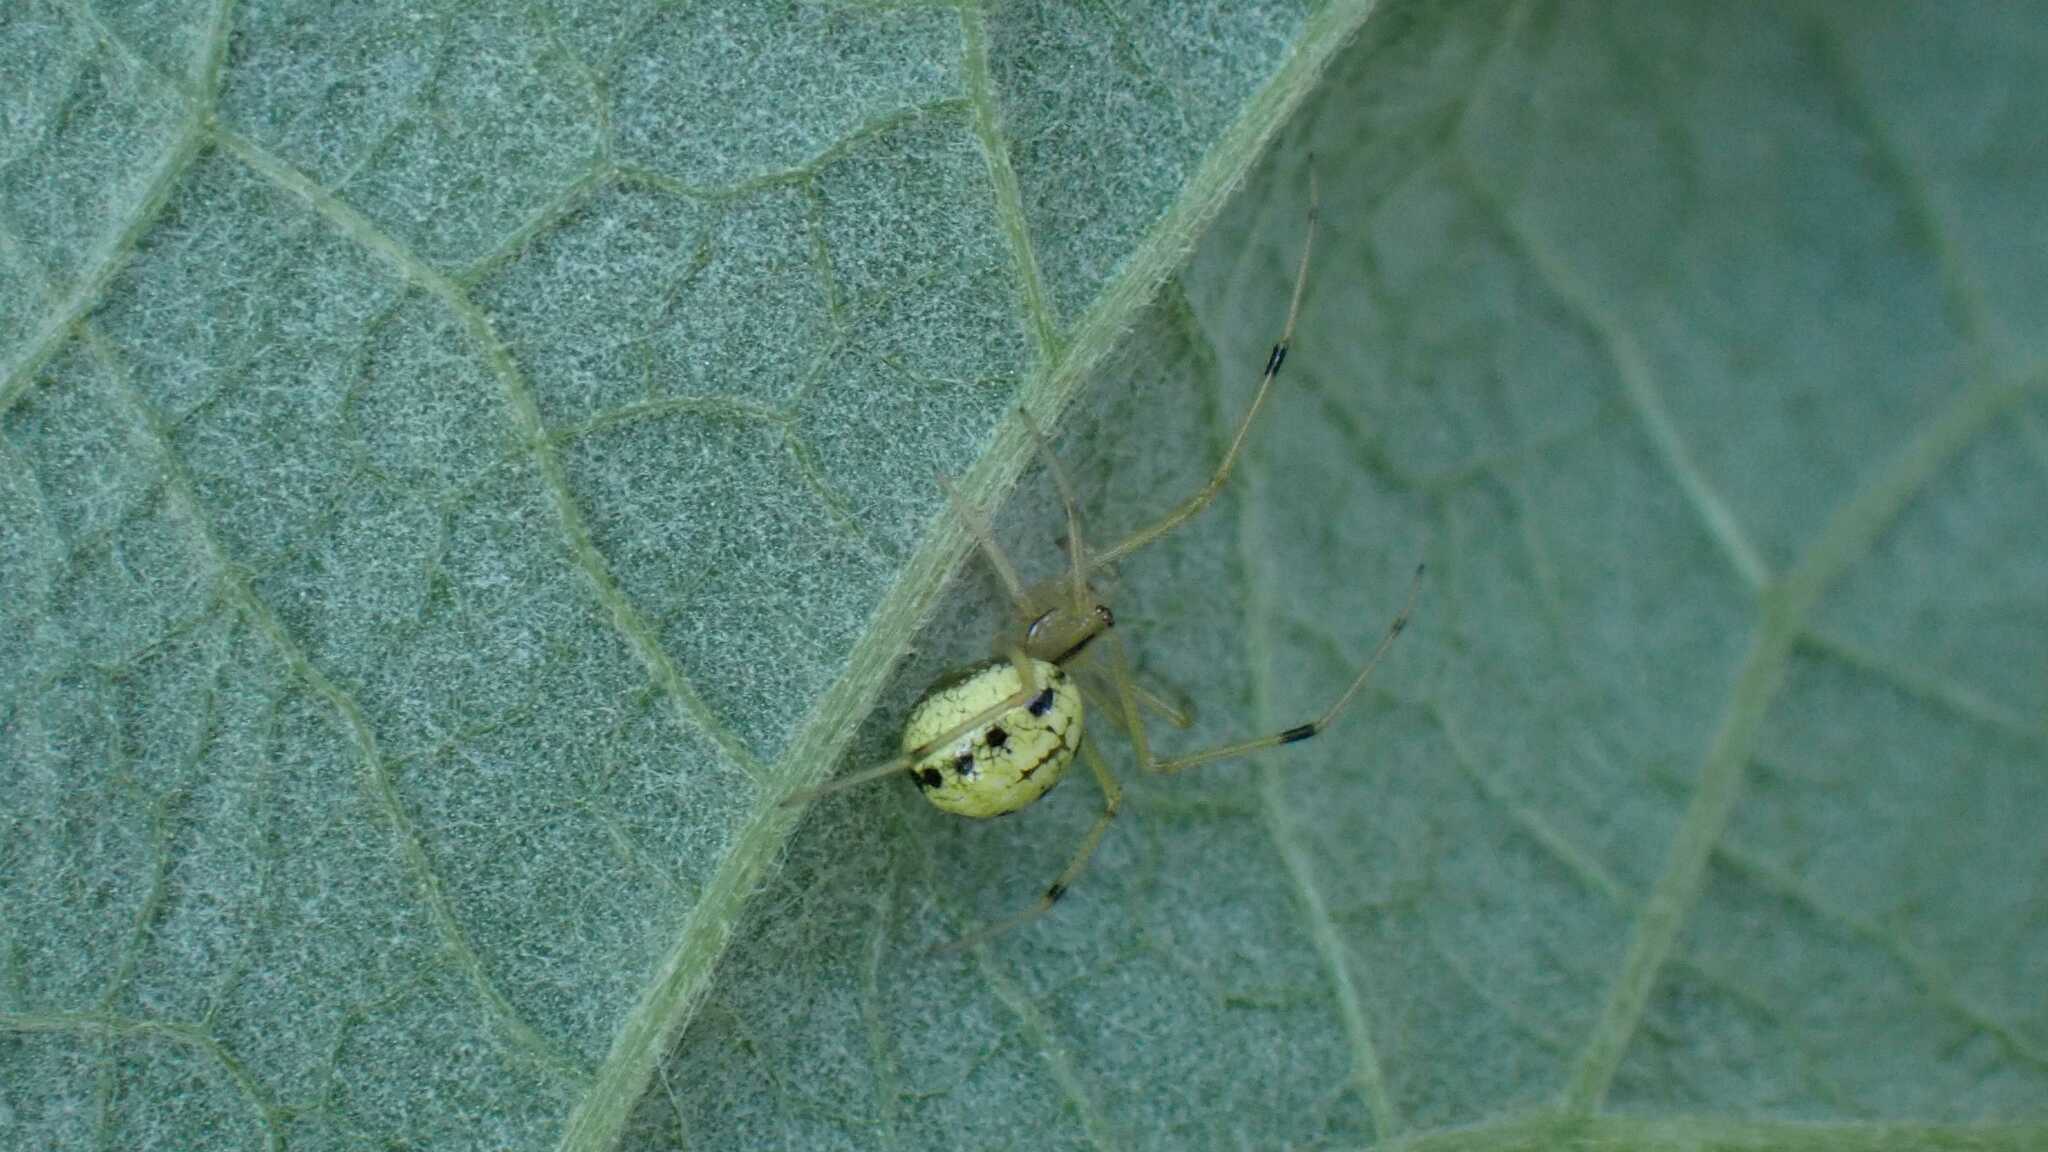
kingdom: Animalia
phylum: Arthropoda
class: Arachnida
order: Araneae
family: Theridiidae
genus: Enoplognatha
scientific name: Enoplognatha
